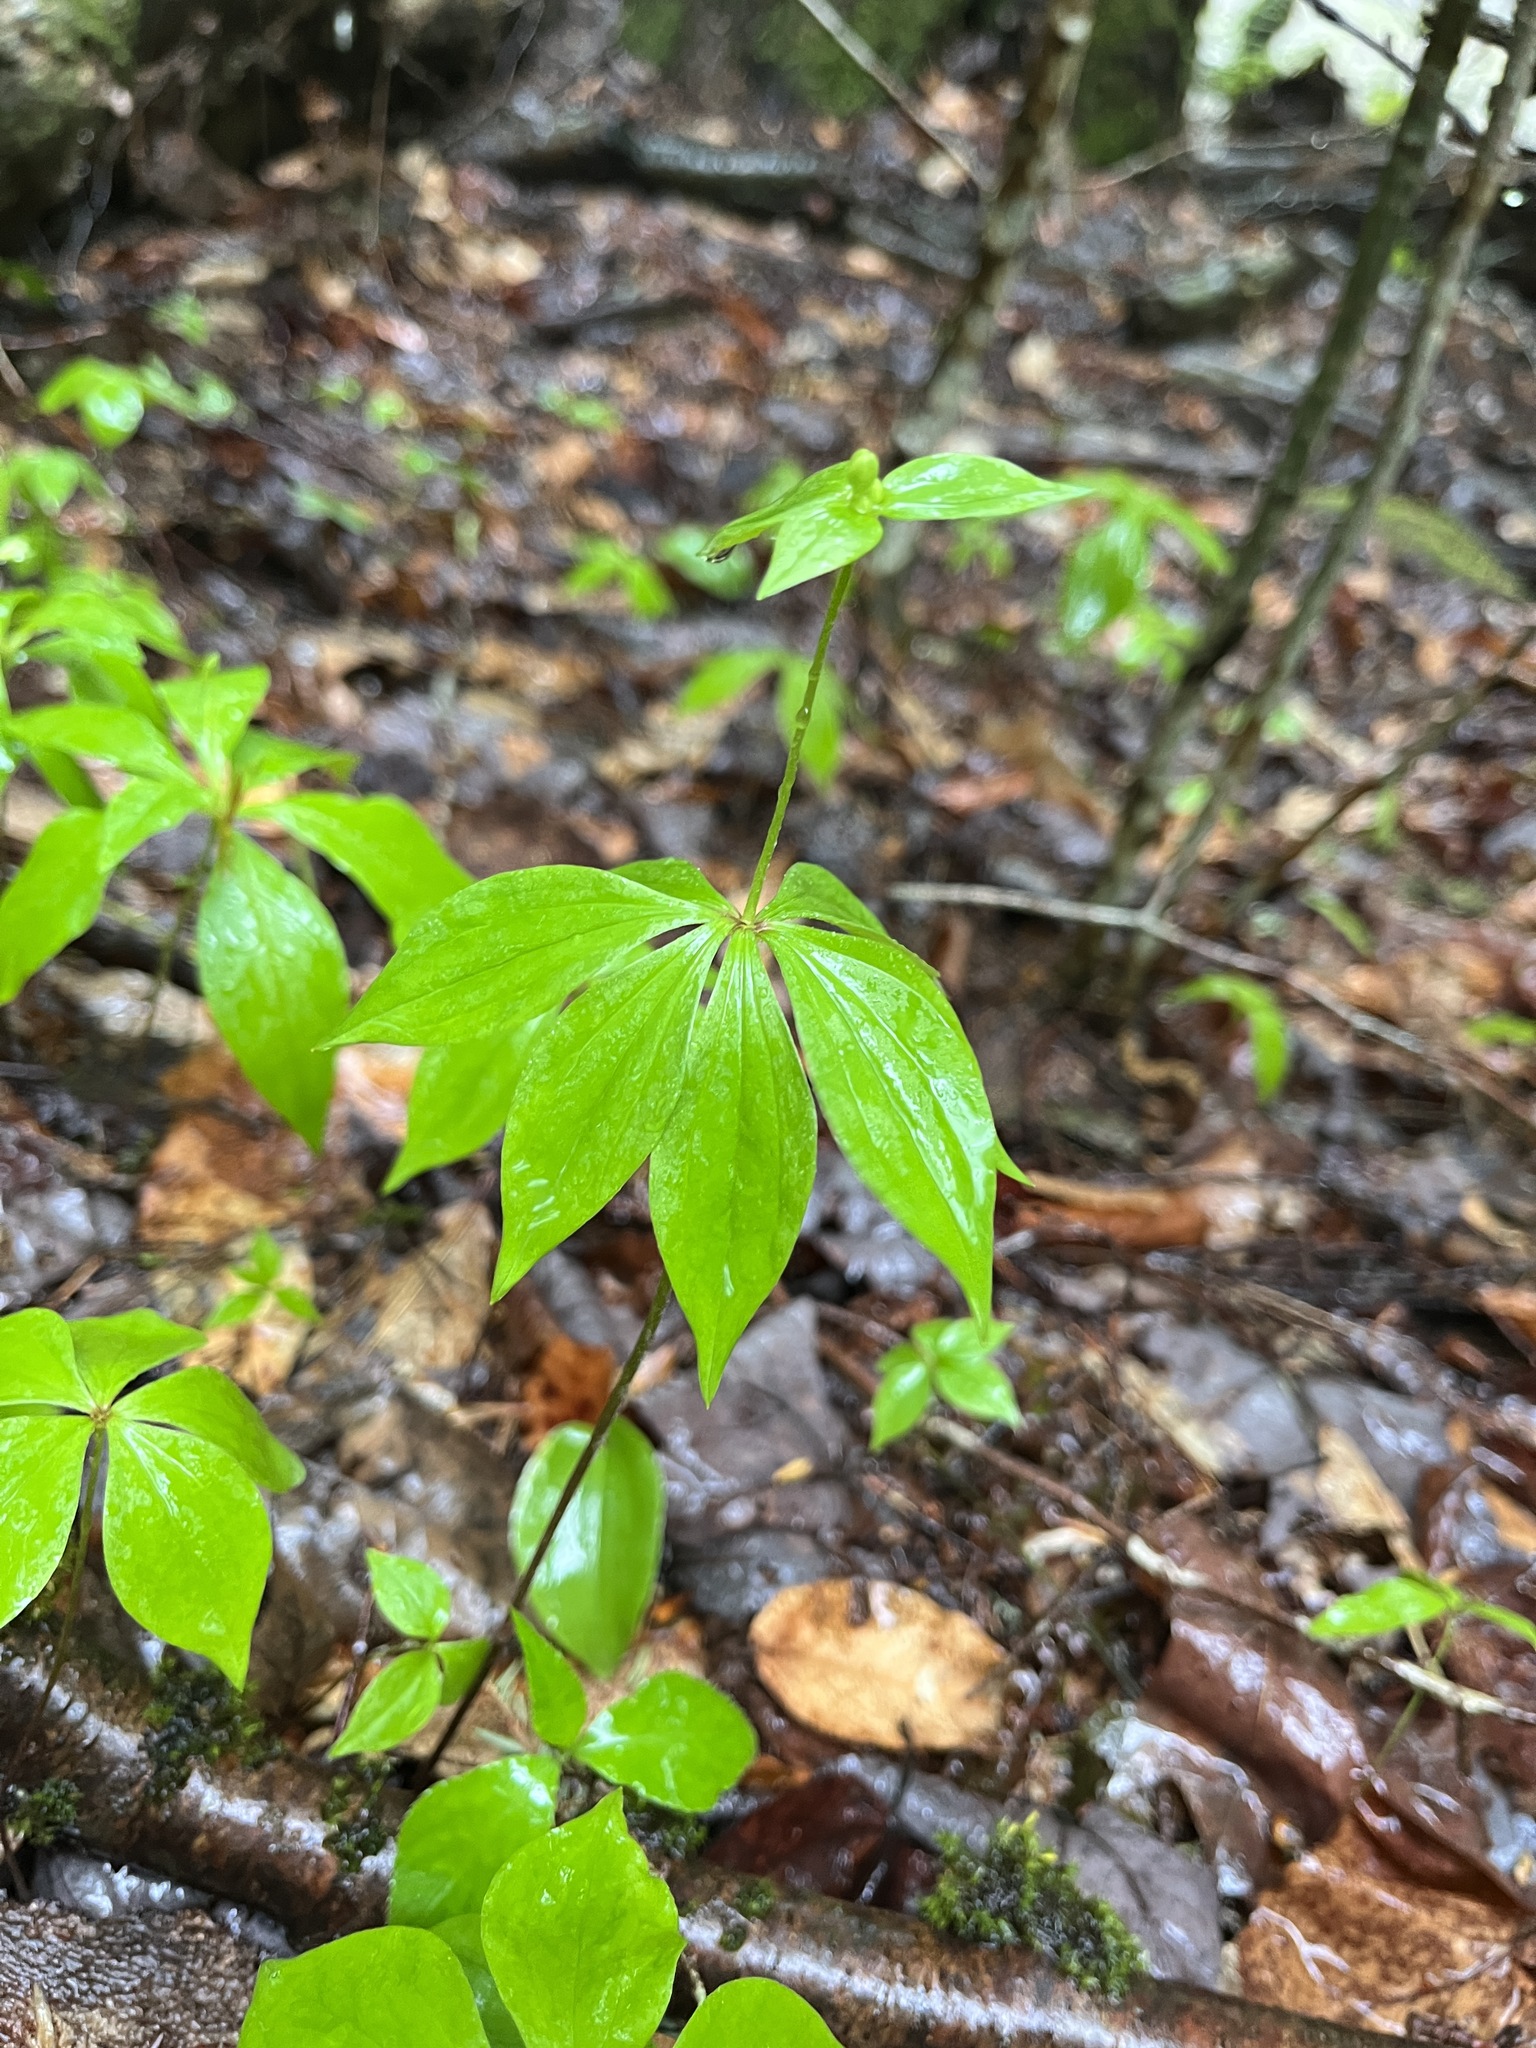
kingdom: Plantae
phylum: Tracheophyta
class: Liliopsida
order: Liliales
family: Liliaceae
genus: Medeola
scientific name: Medeola virginiana
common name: Indian cucumber-root
